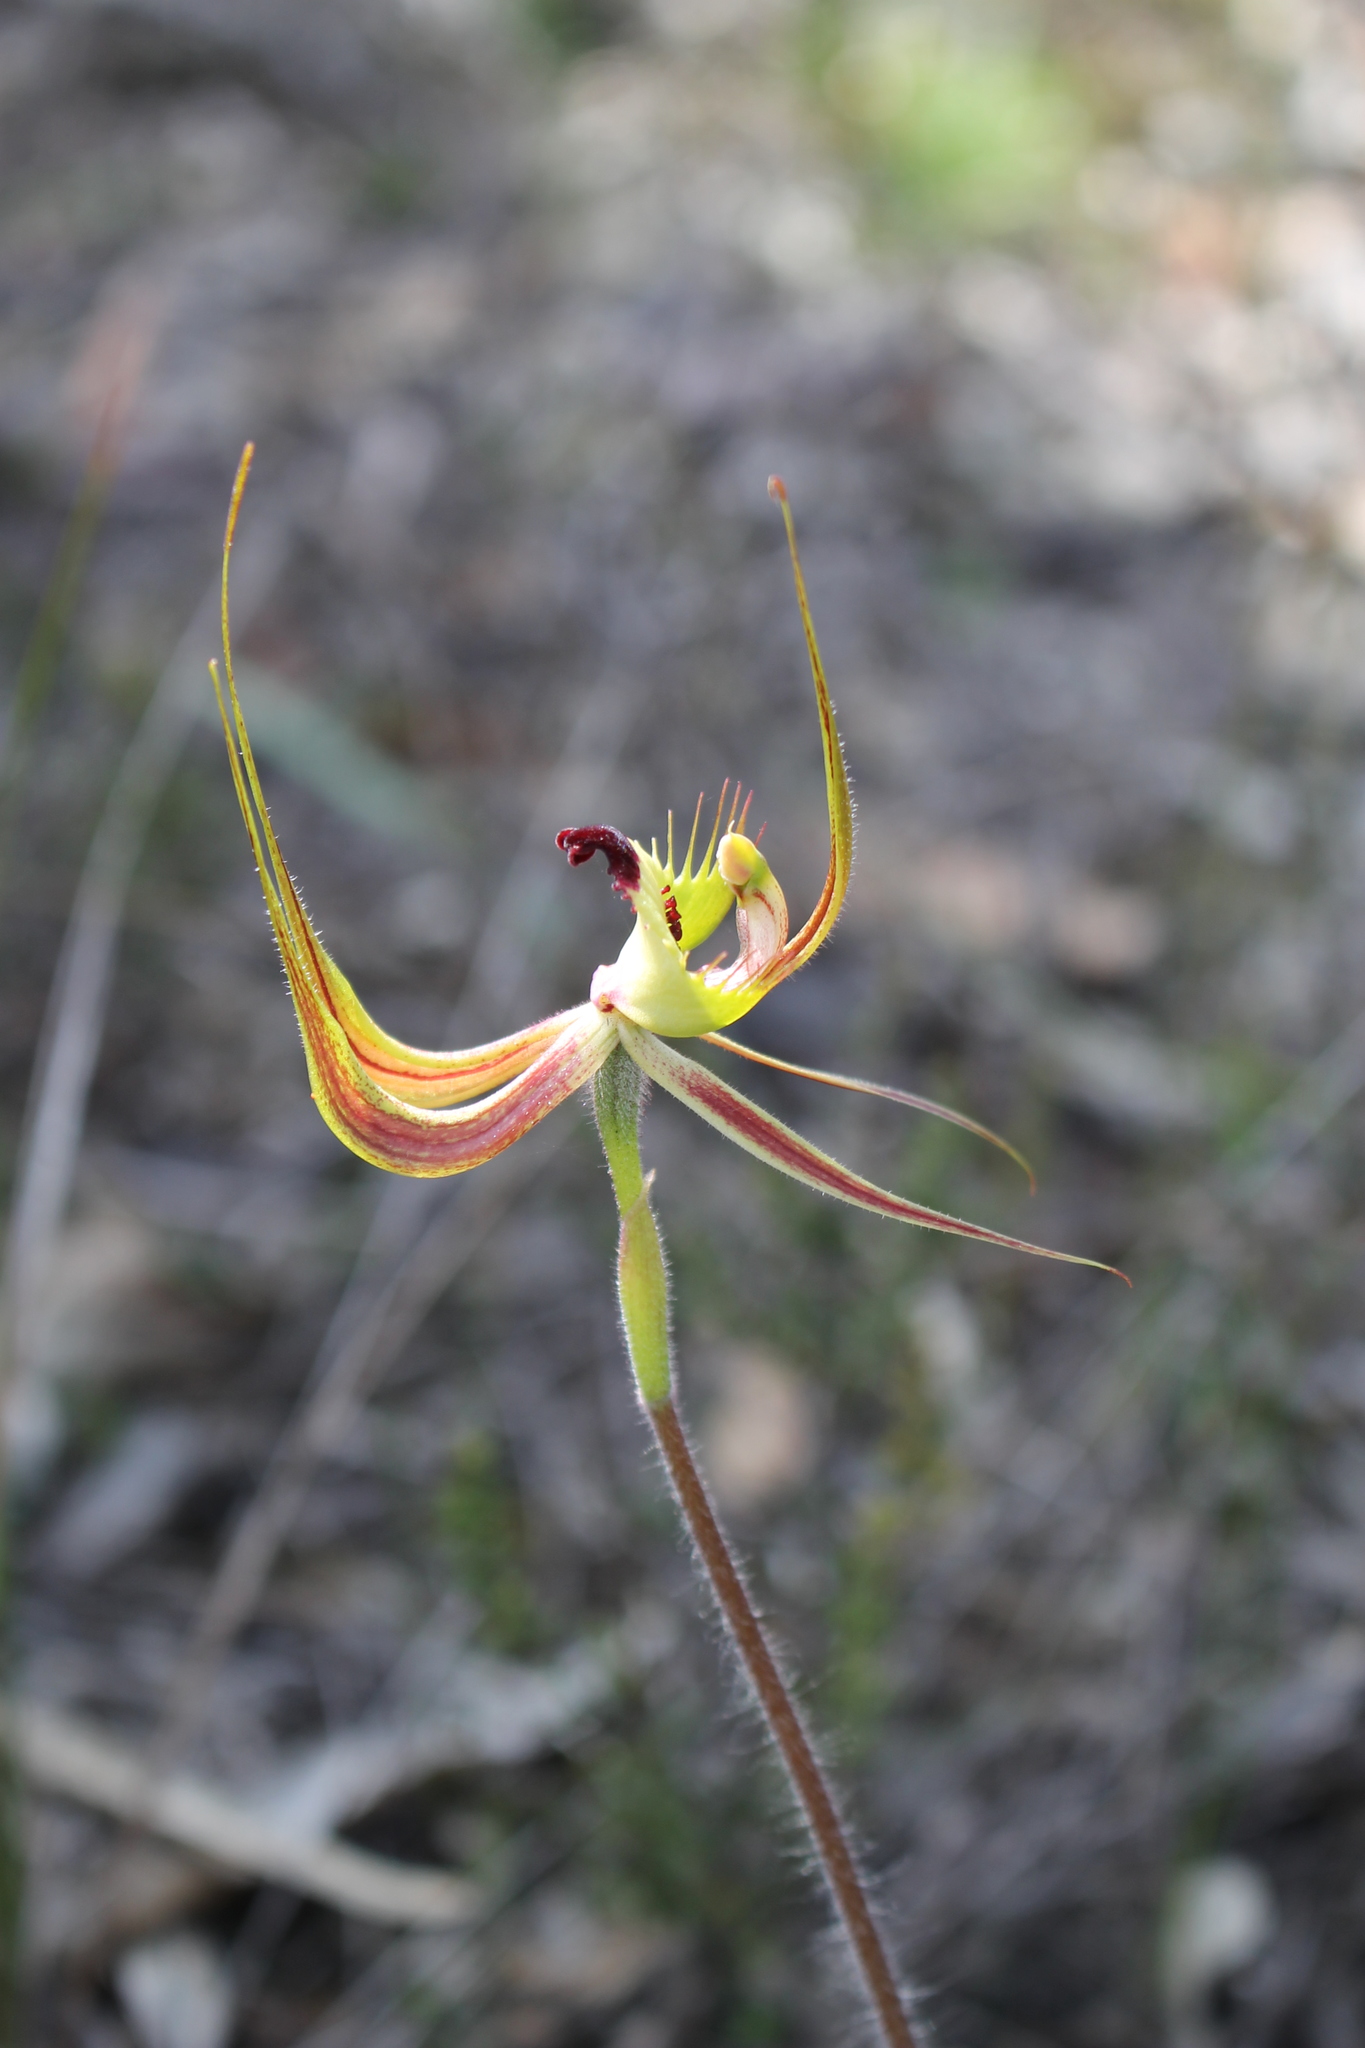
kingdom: Plantae
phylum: Tracheophyta
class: Liliopsida
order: Asparagales
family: Orchidaceae
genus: Caladenia
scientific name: Caladenia falcata
